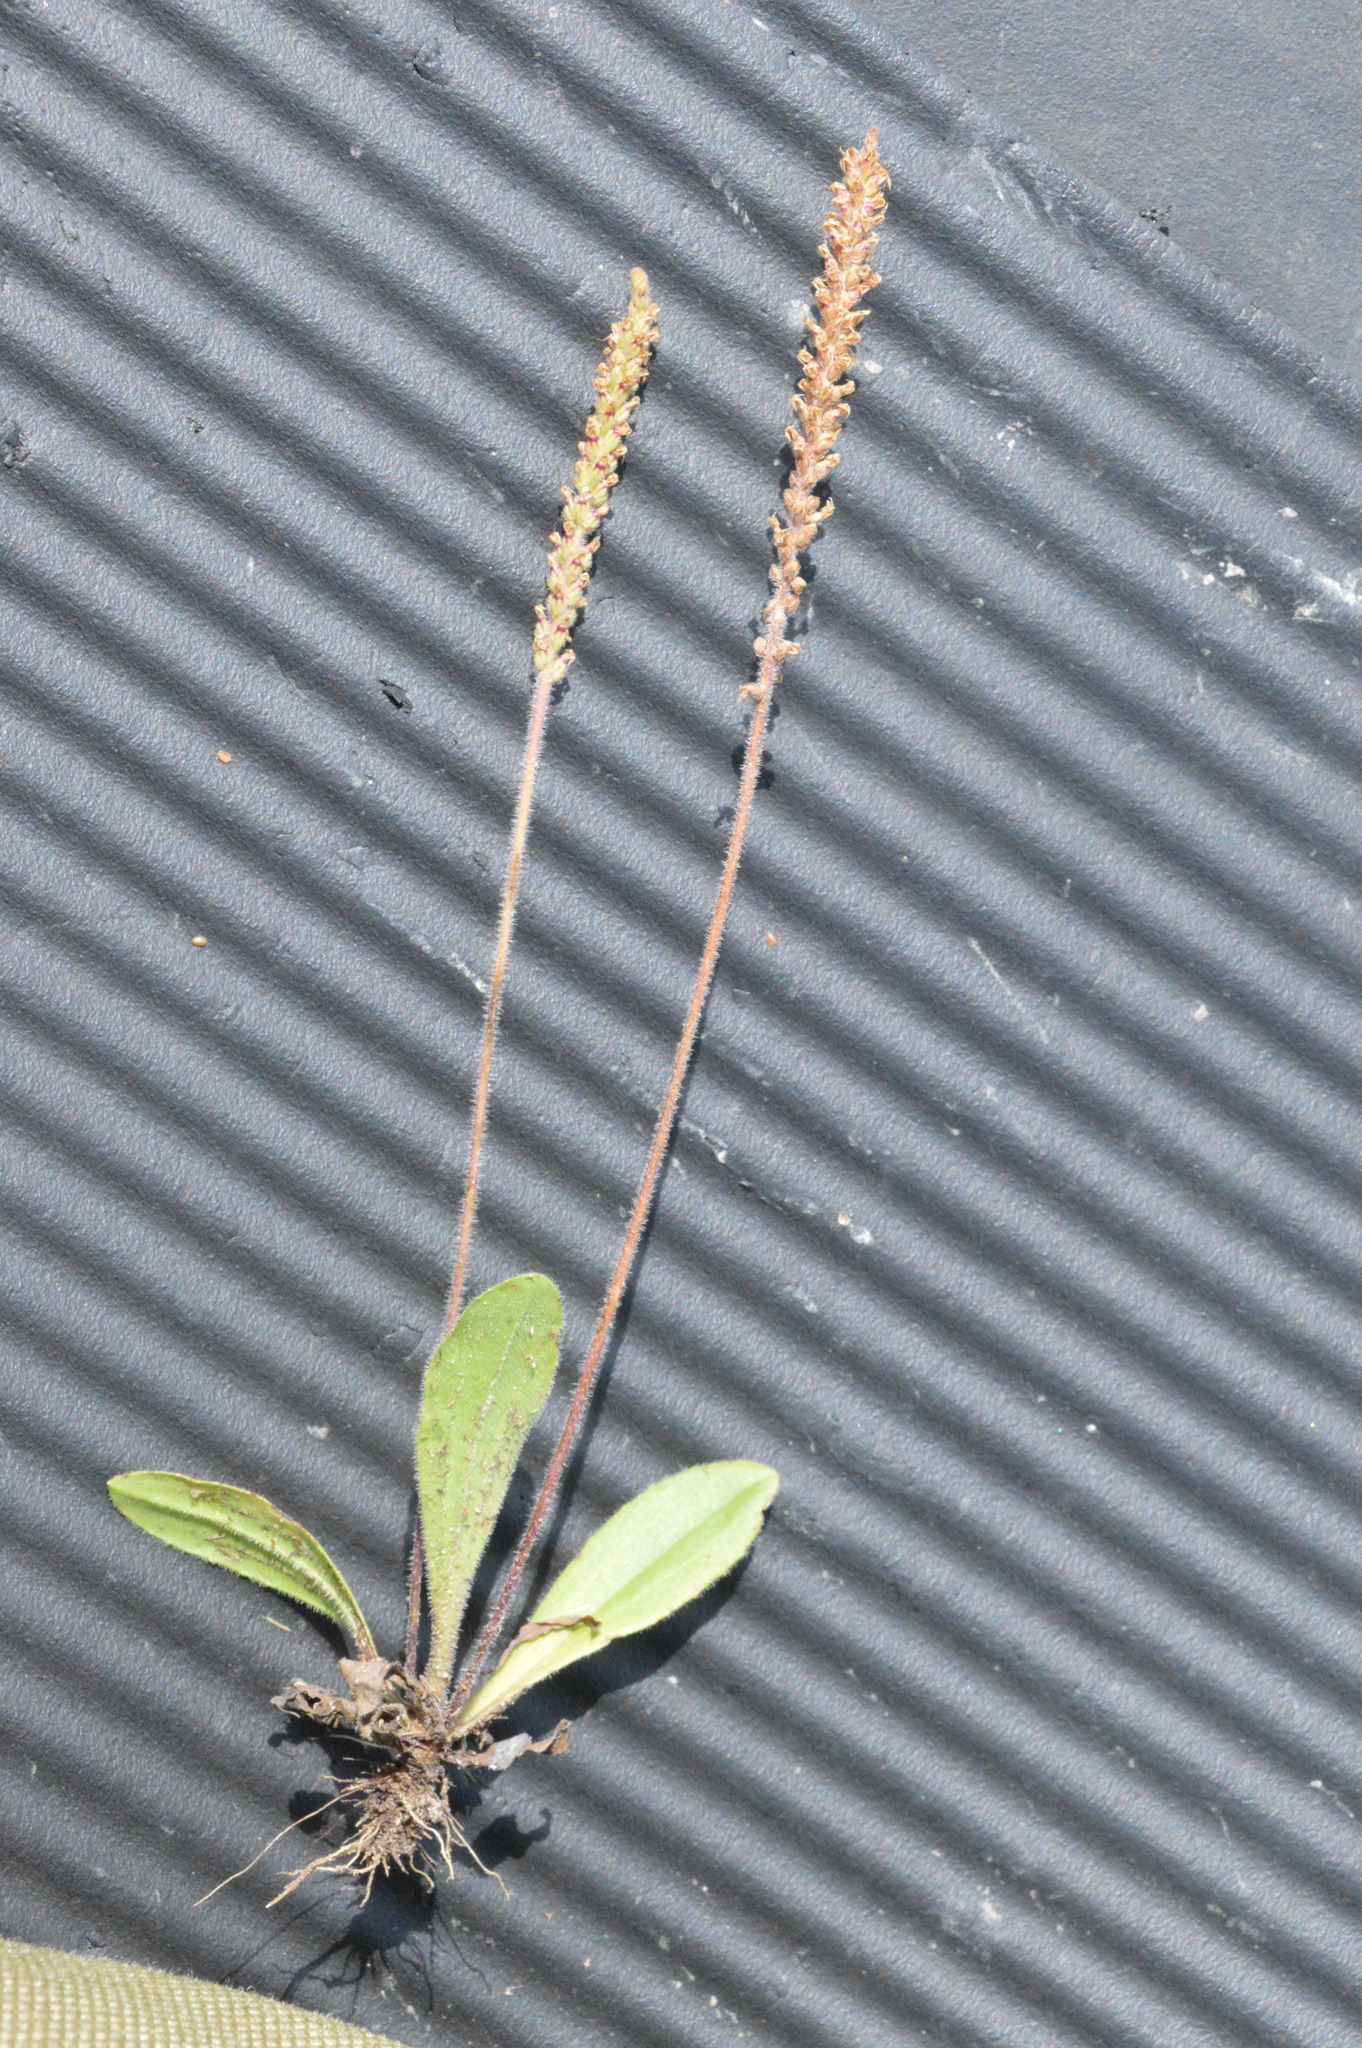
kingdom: Plantae
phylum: Tracheophyta
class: Magnoliopsida
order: Lamiales
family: Plantaginaceae
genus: Plantago
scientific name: Plantago virginica
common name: Hoary plantain
